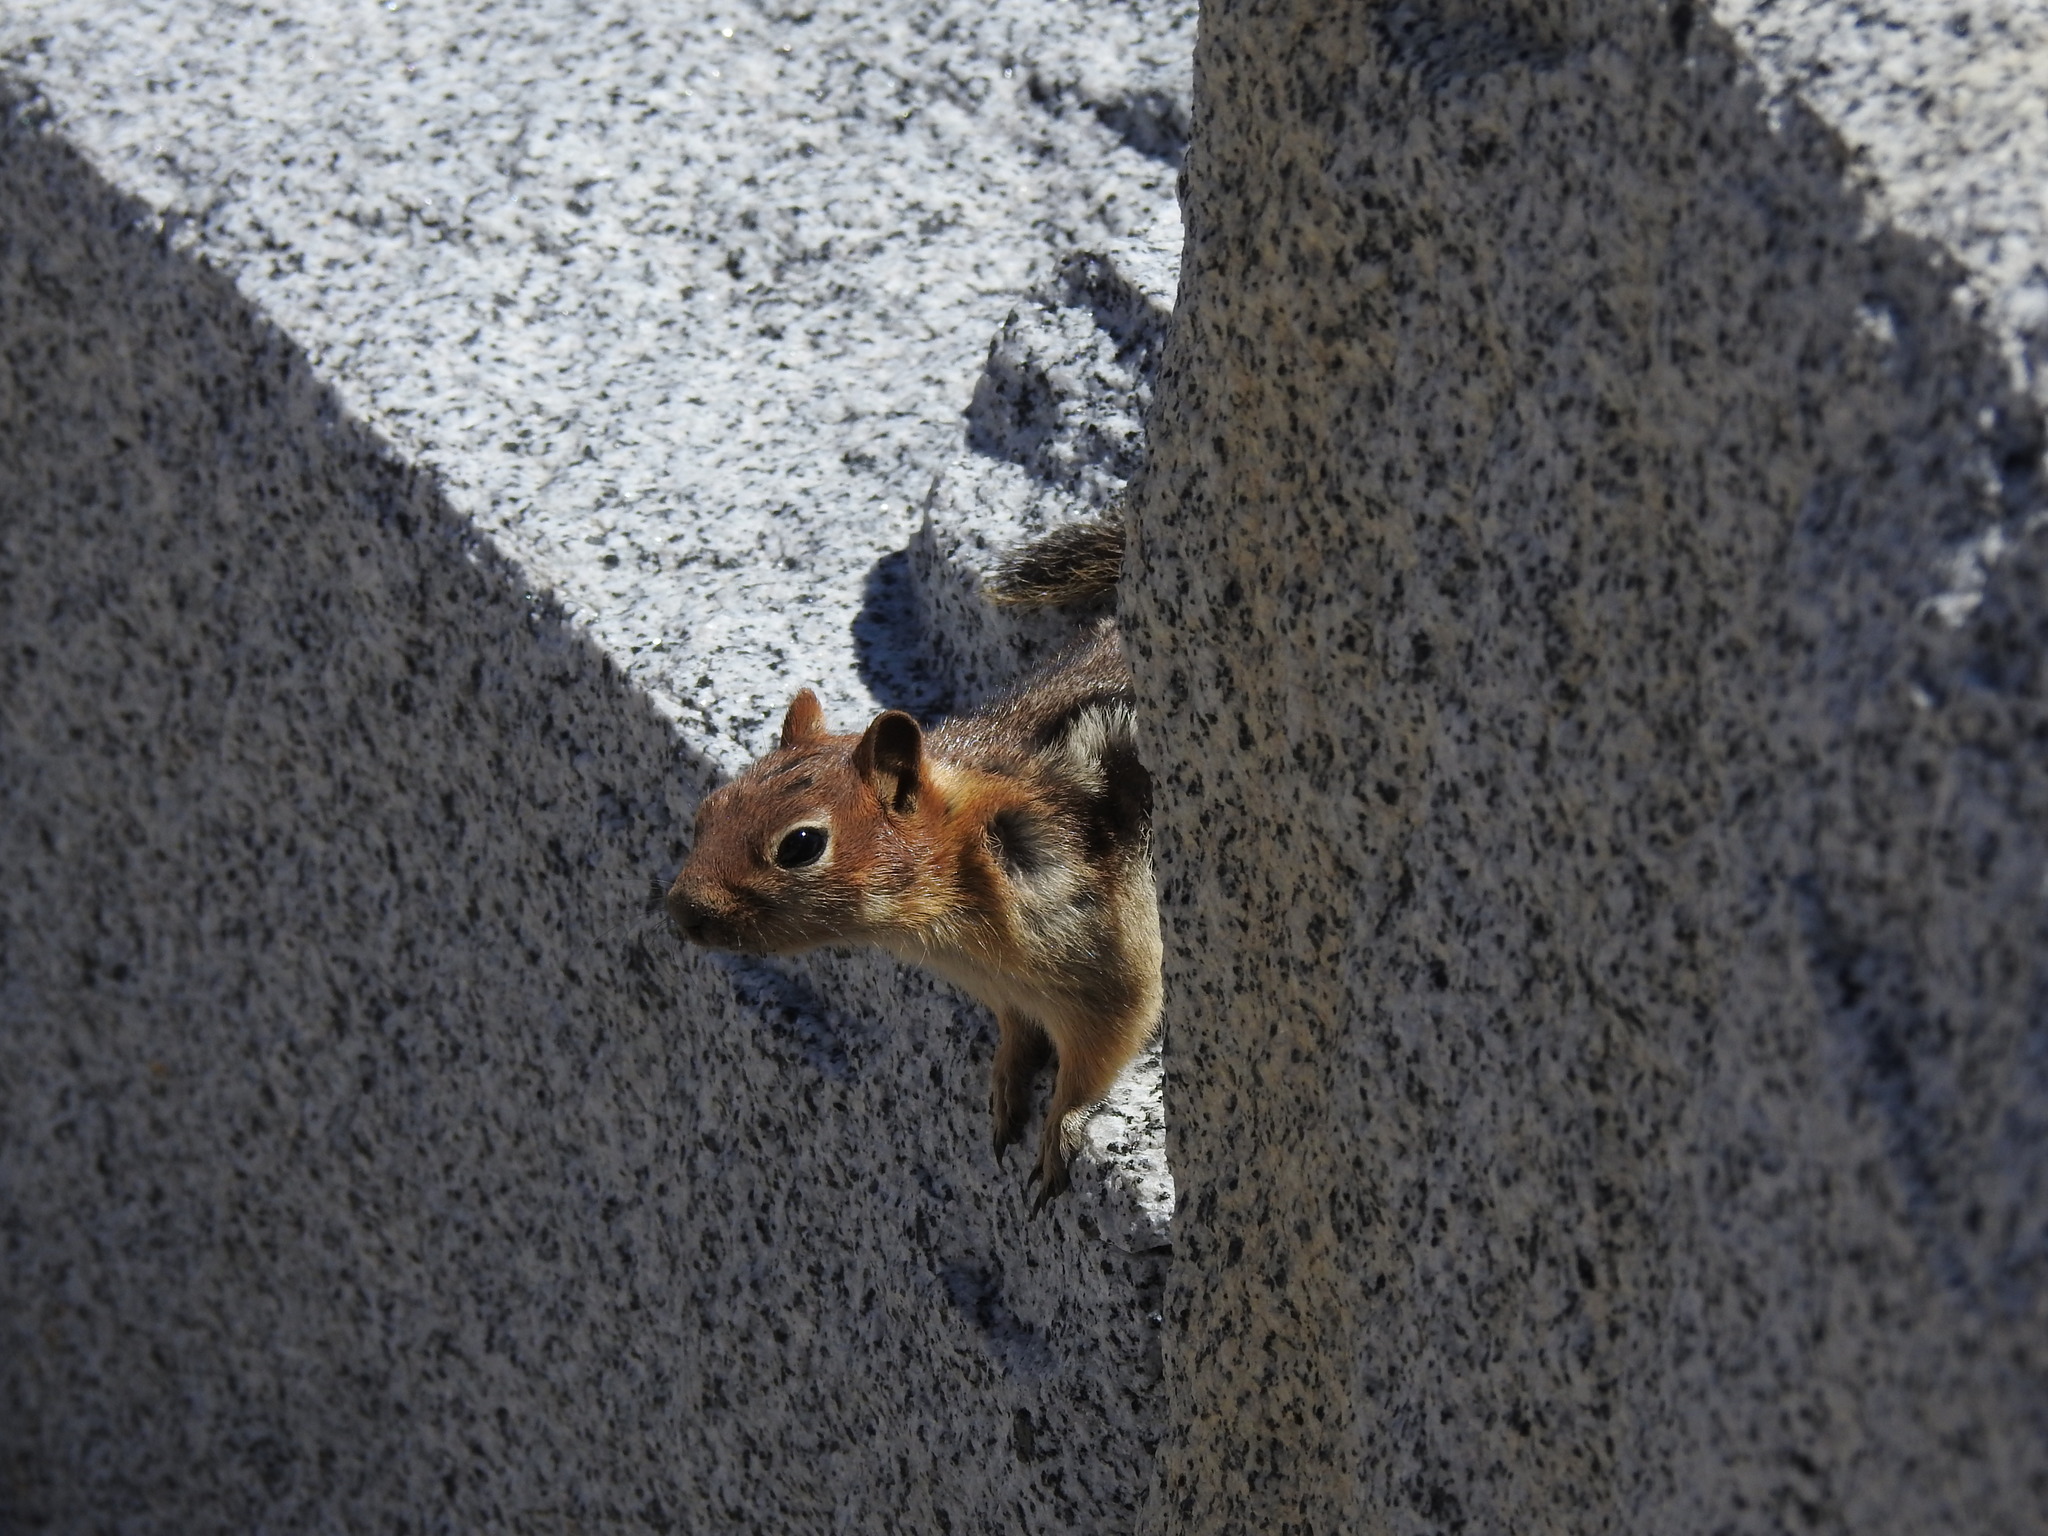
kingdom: Animalia
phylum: Chordata
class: Mammalia
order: Rodentia
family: Sciuridae
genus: Callospermophilus
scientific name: Callospermophilus lateralis
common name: Golden-mantled ground squirrel
